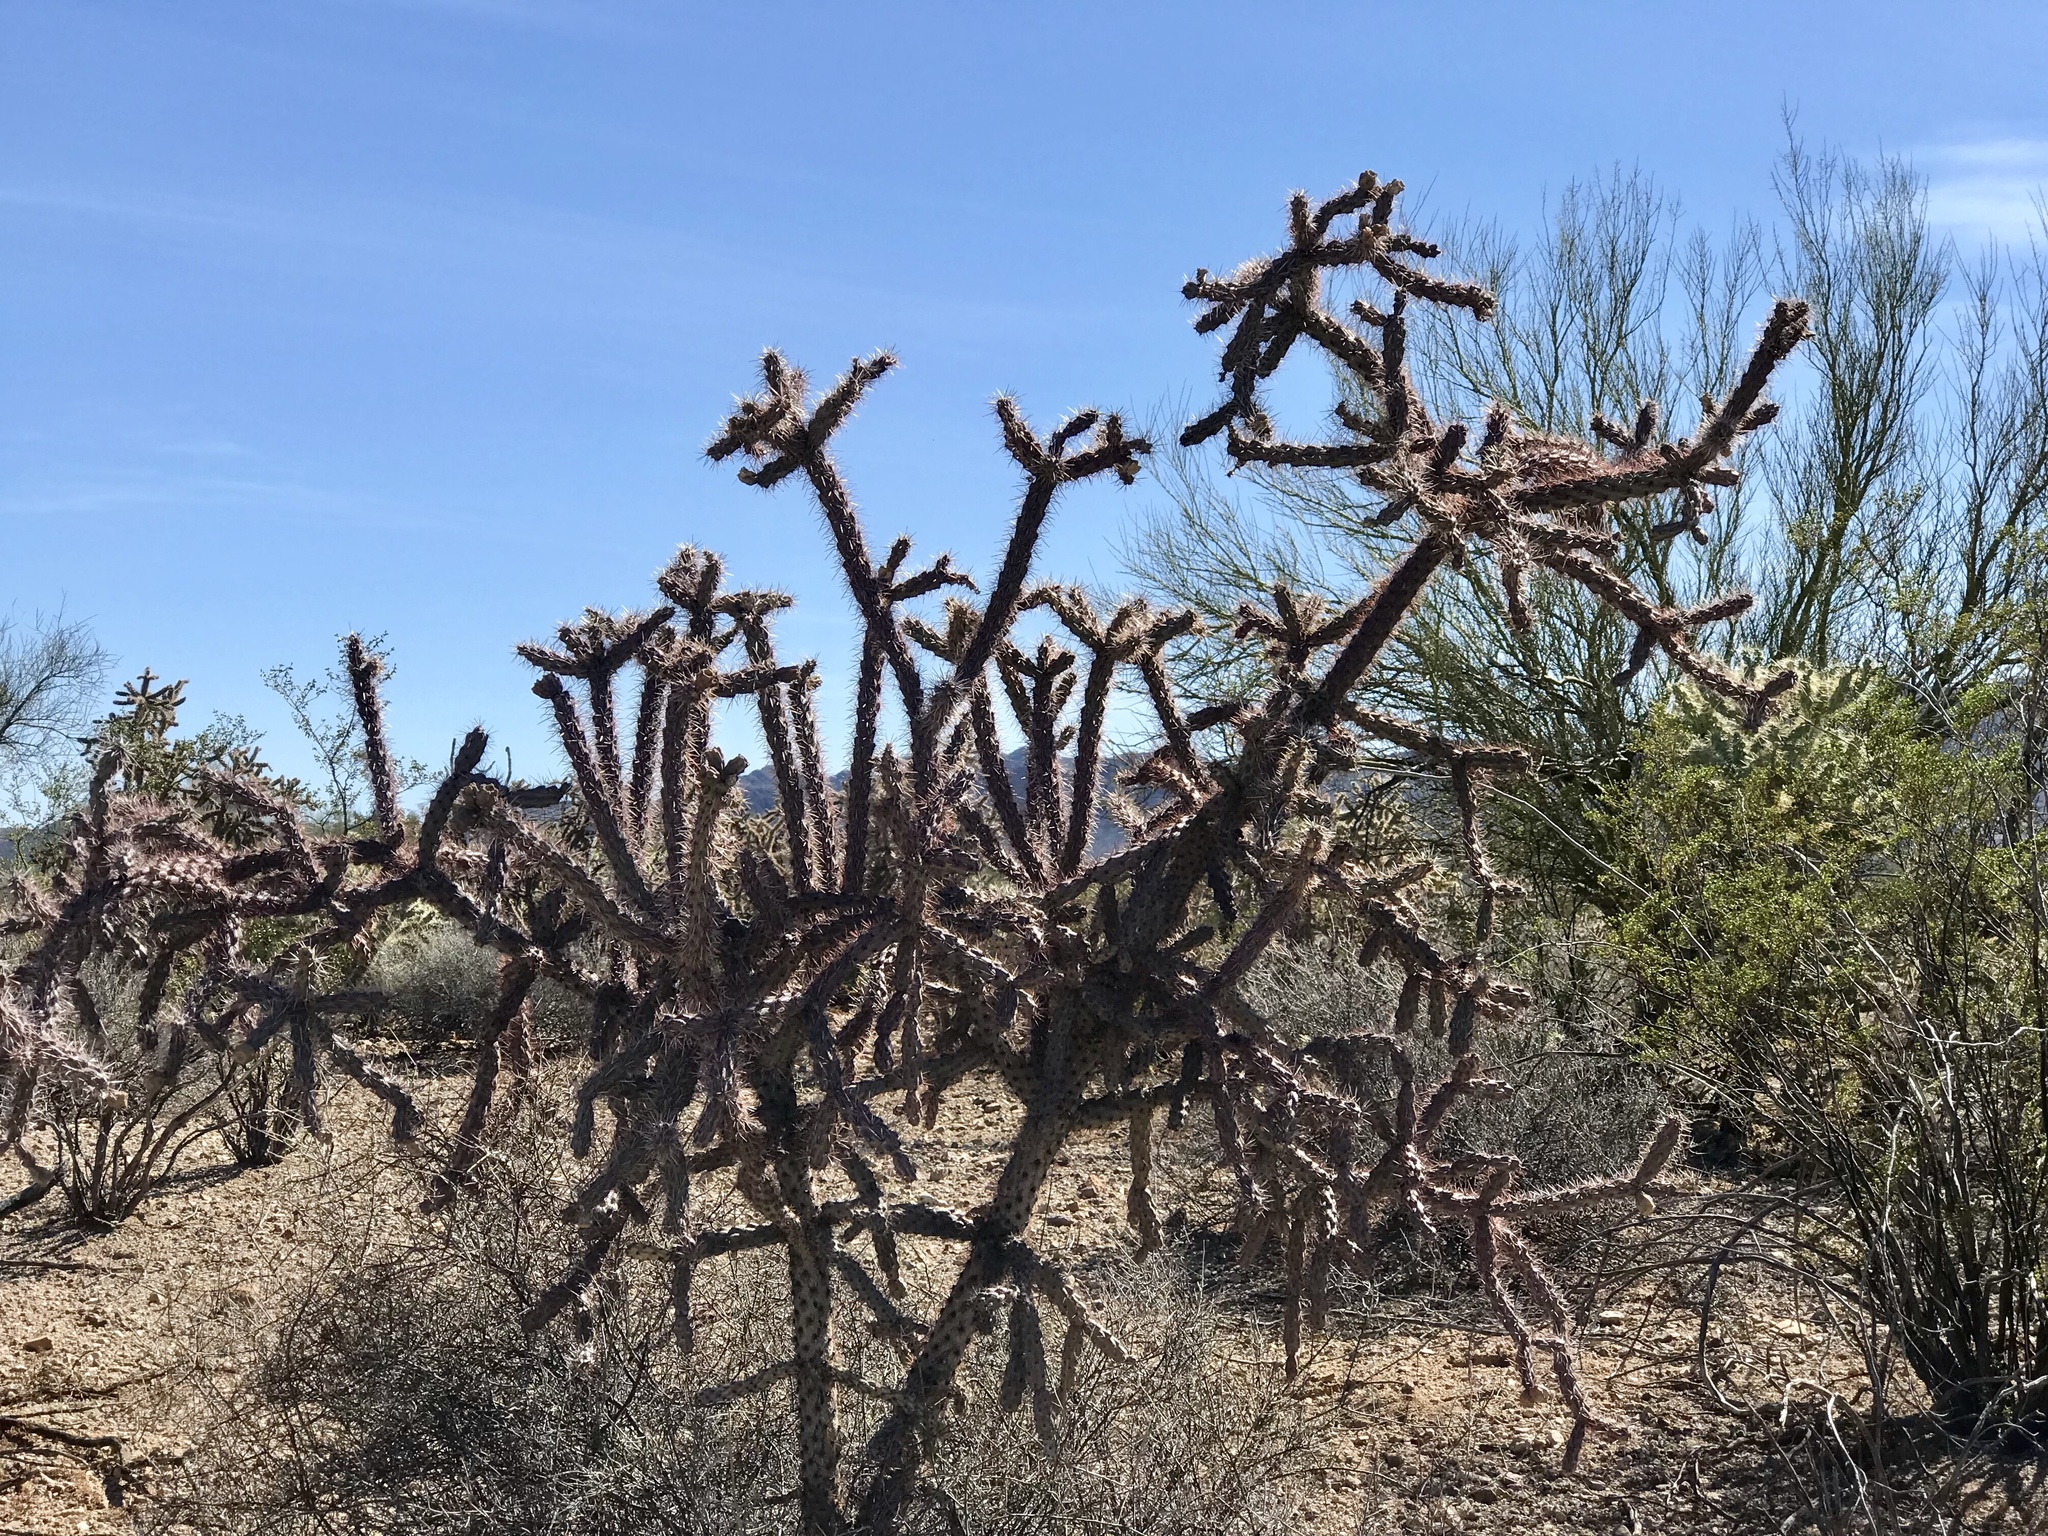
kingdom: Plantae
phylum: Tracheophyta
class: Magnoliopsida
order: Caryophyllales
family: Cactaceae
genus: Cylindropuntia
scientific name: Cylindropuntia imbricata
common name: Candelabrum cactus
